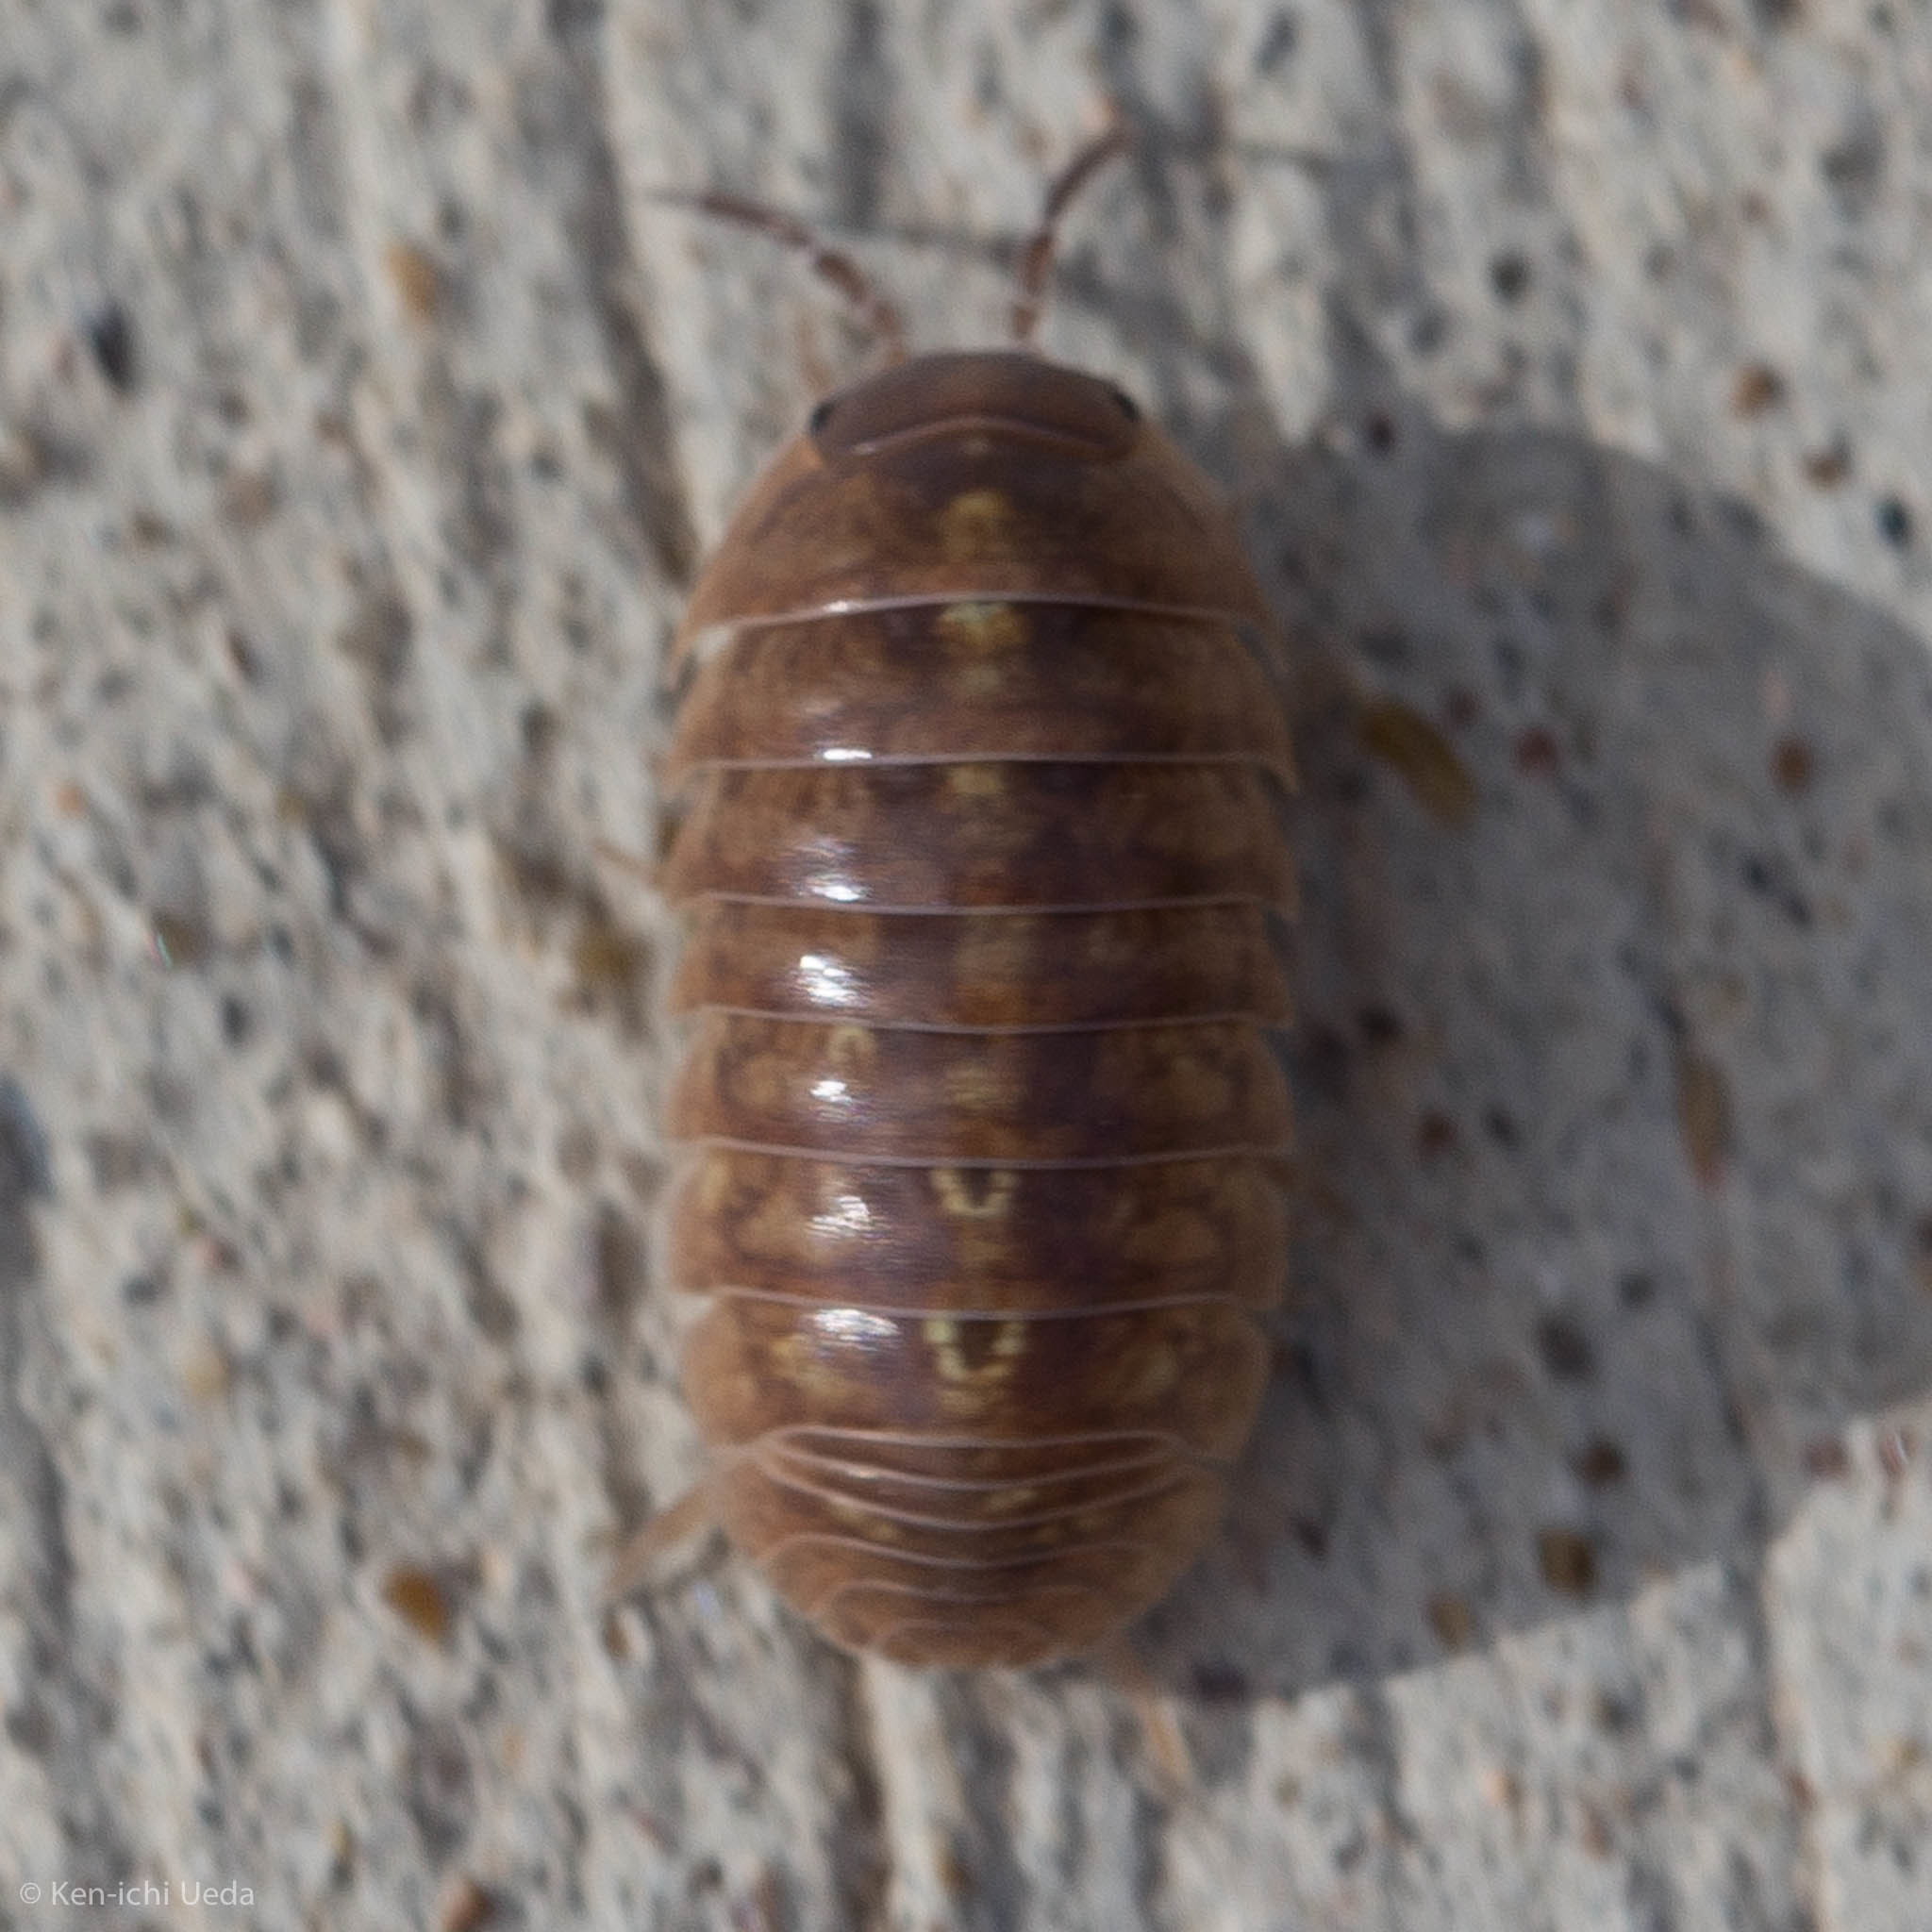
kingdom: Animalia
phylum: Arthropoda
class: Malacostraca
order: Isopoda
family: Armadillidiidae
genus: Armadillidium
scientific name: Armadillidium vulgare
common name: Common pill woodlouse
